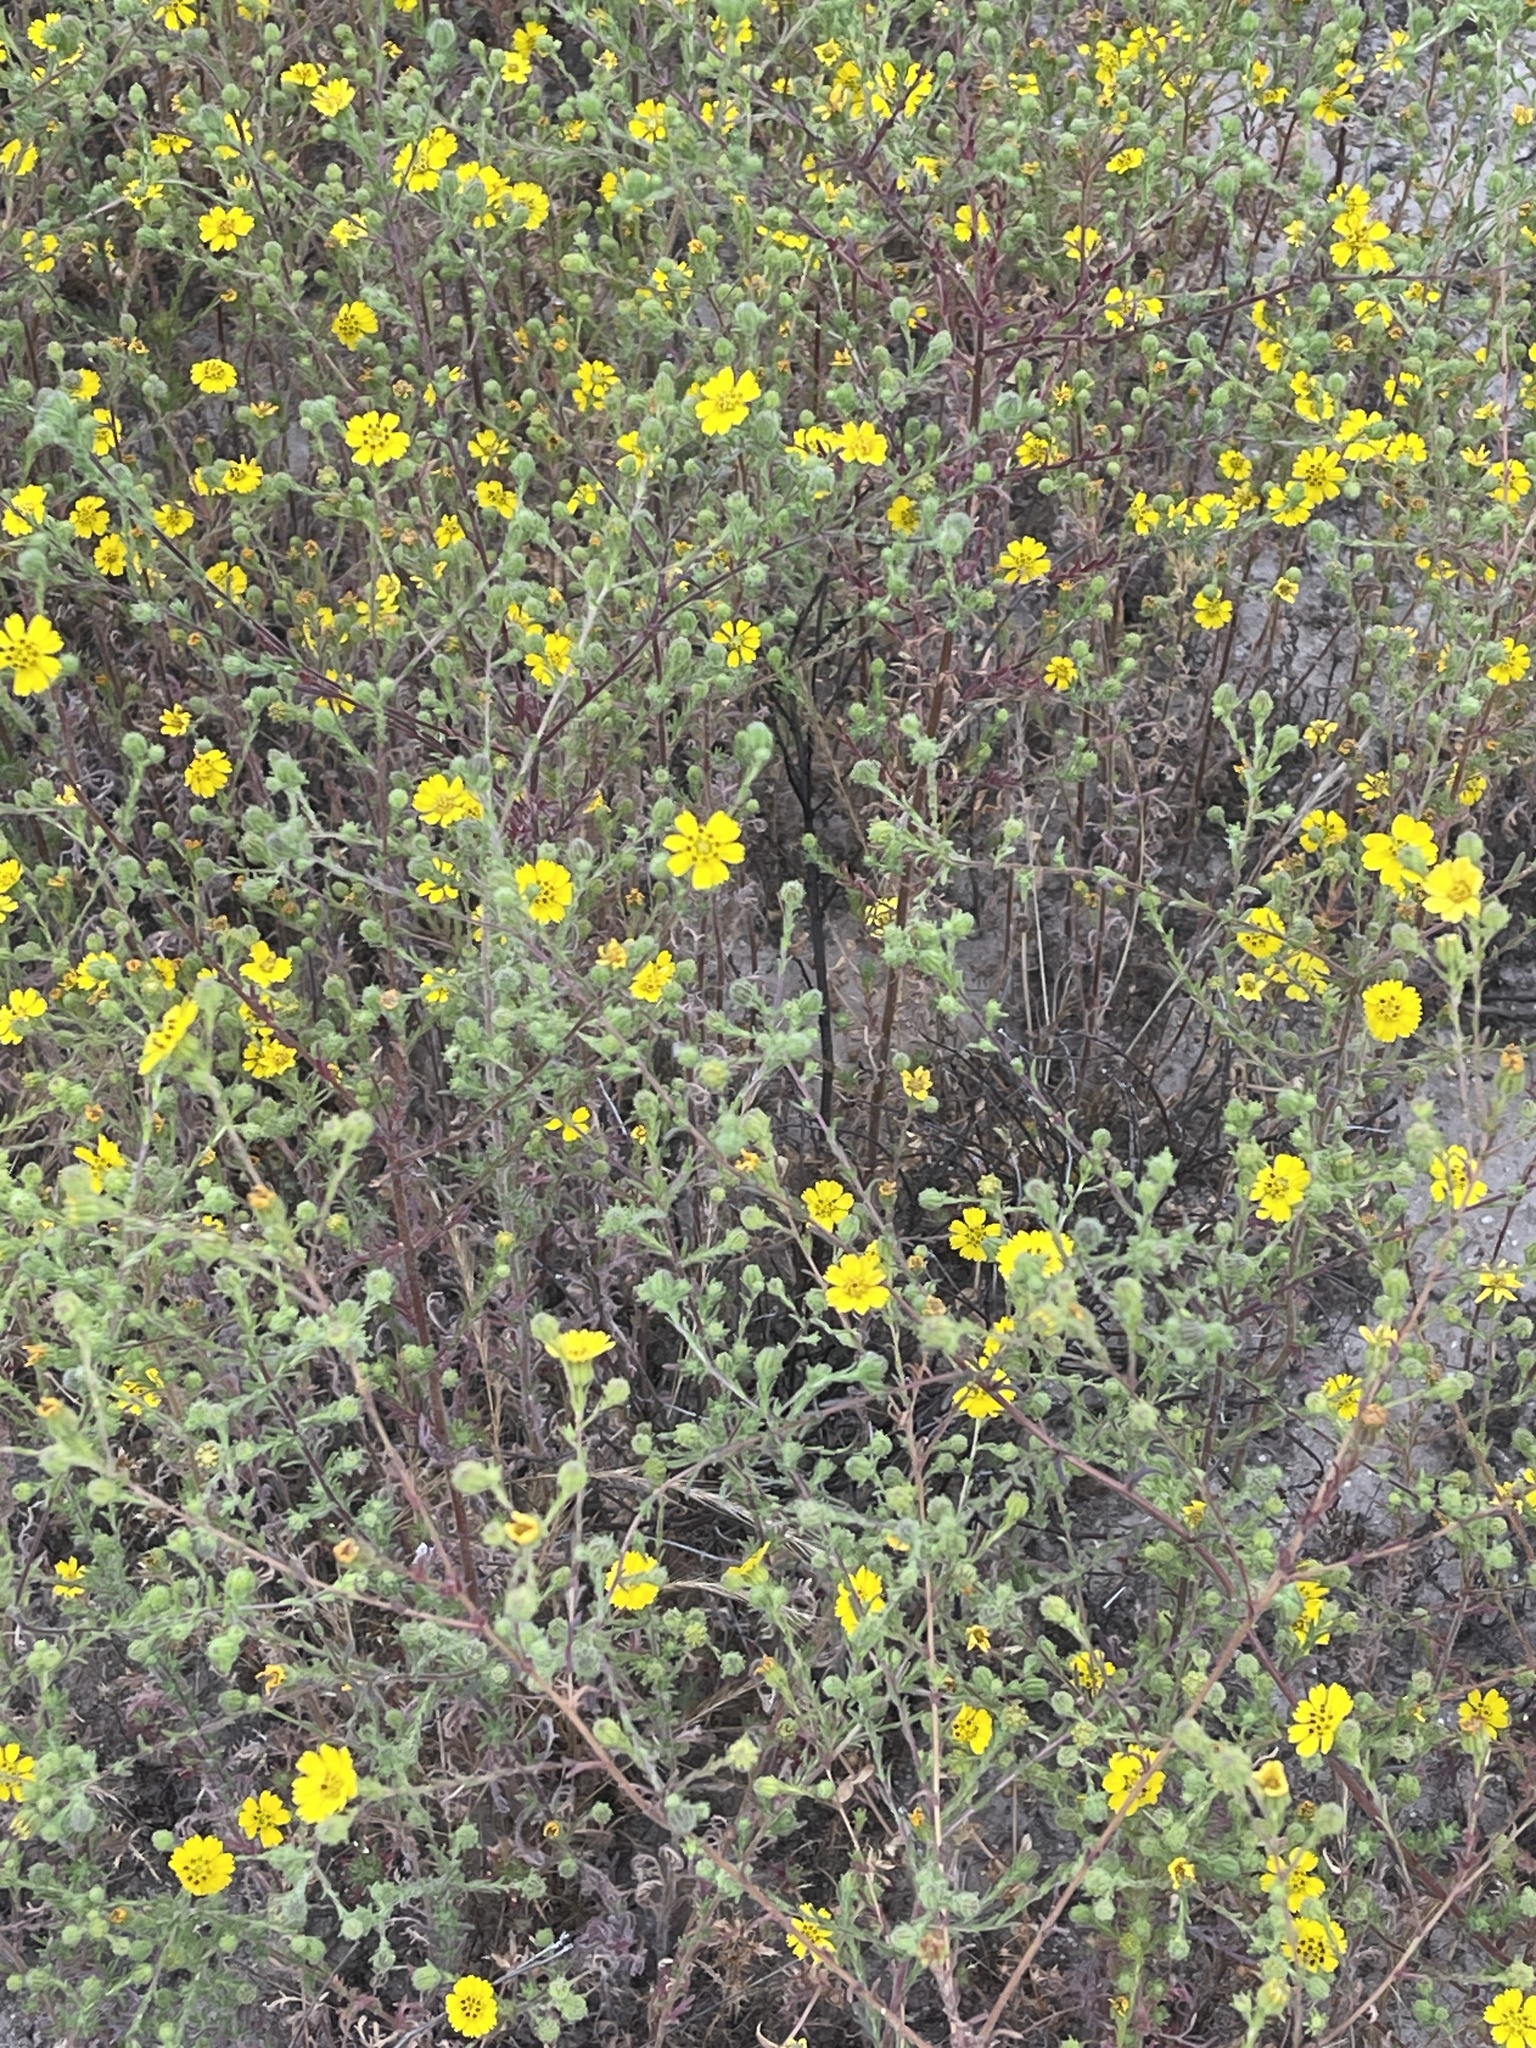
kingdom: Plantae
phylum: Tracheophyta
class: Magnoliopsida
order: Asterales
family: Asteraceae
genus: Deinandra
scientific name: Deinandra paniculata
